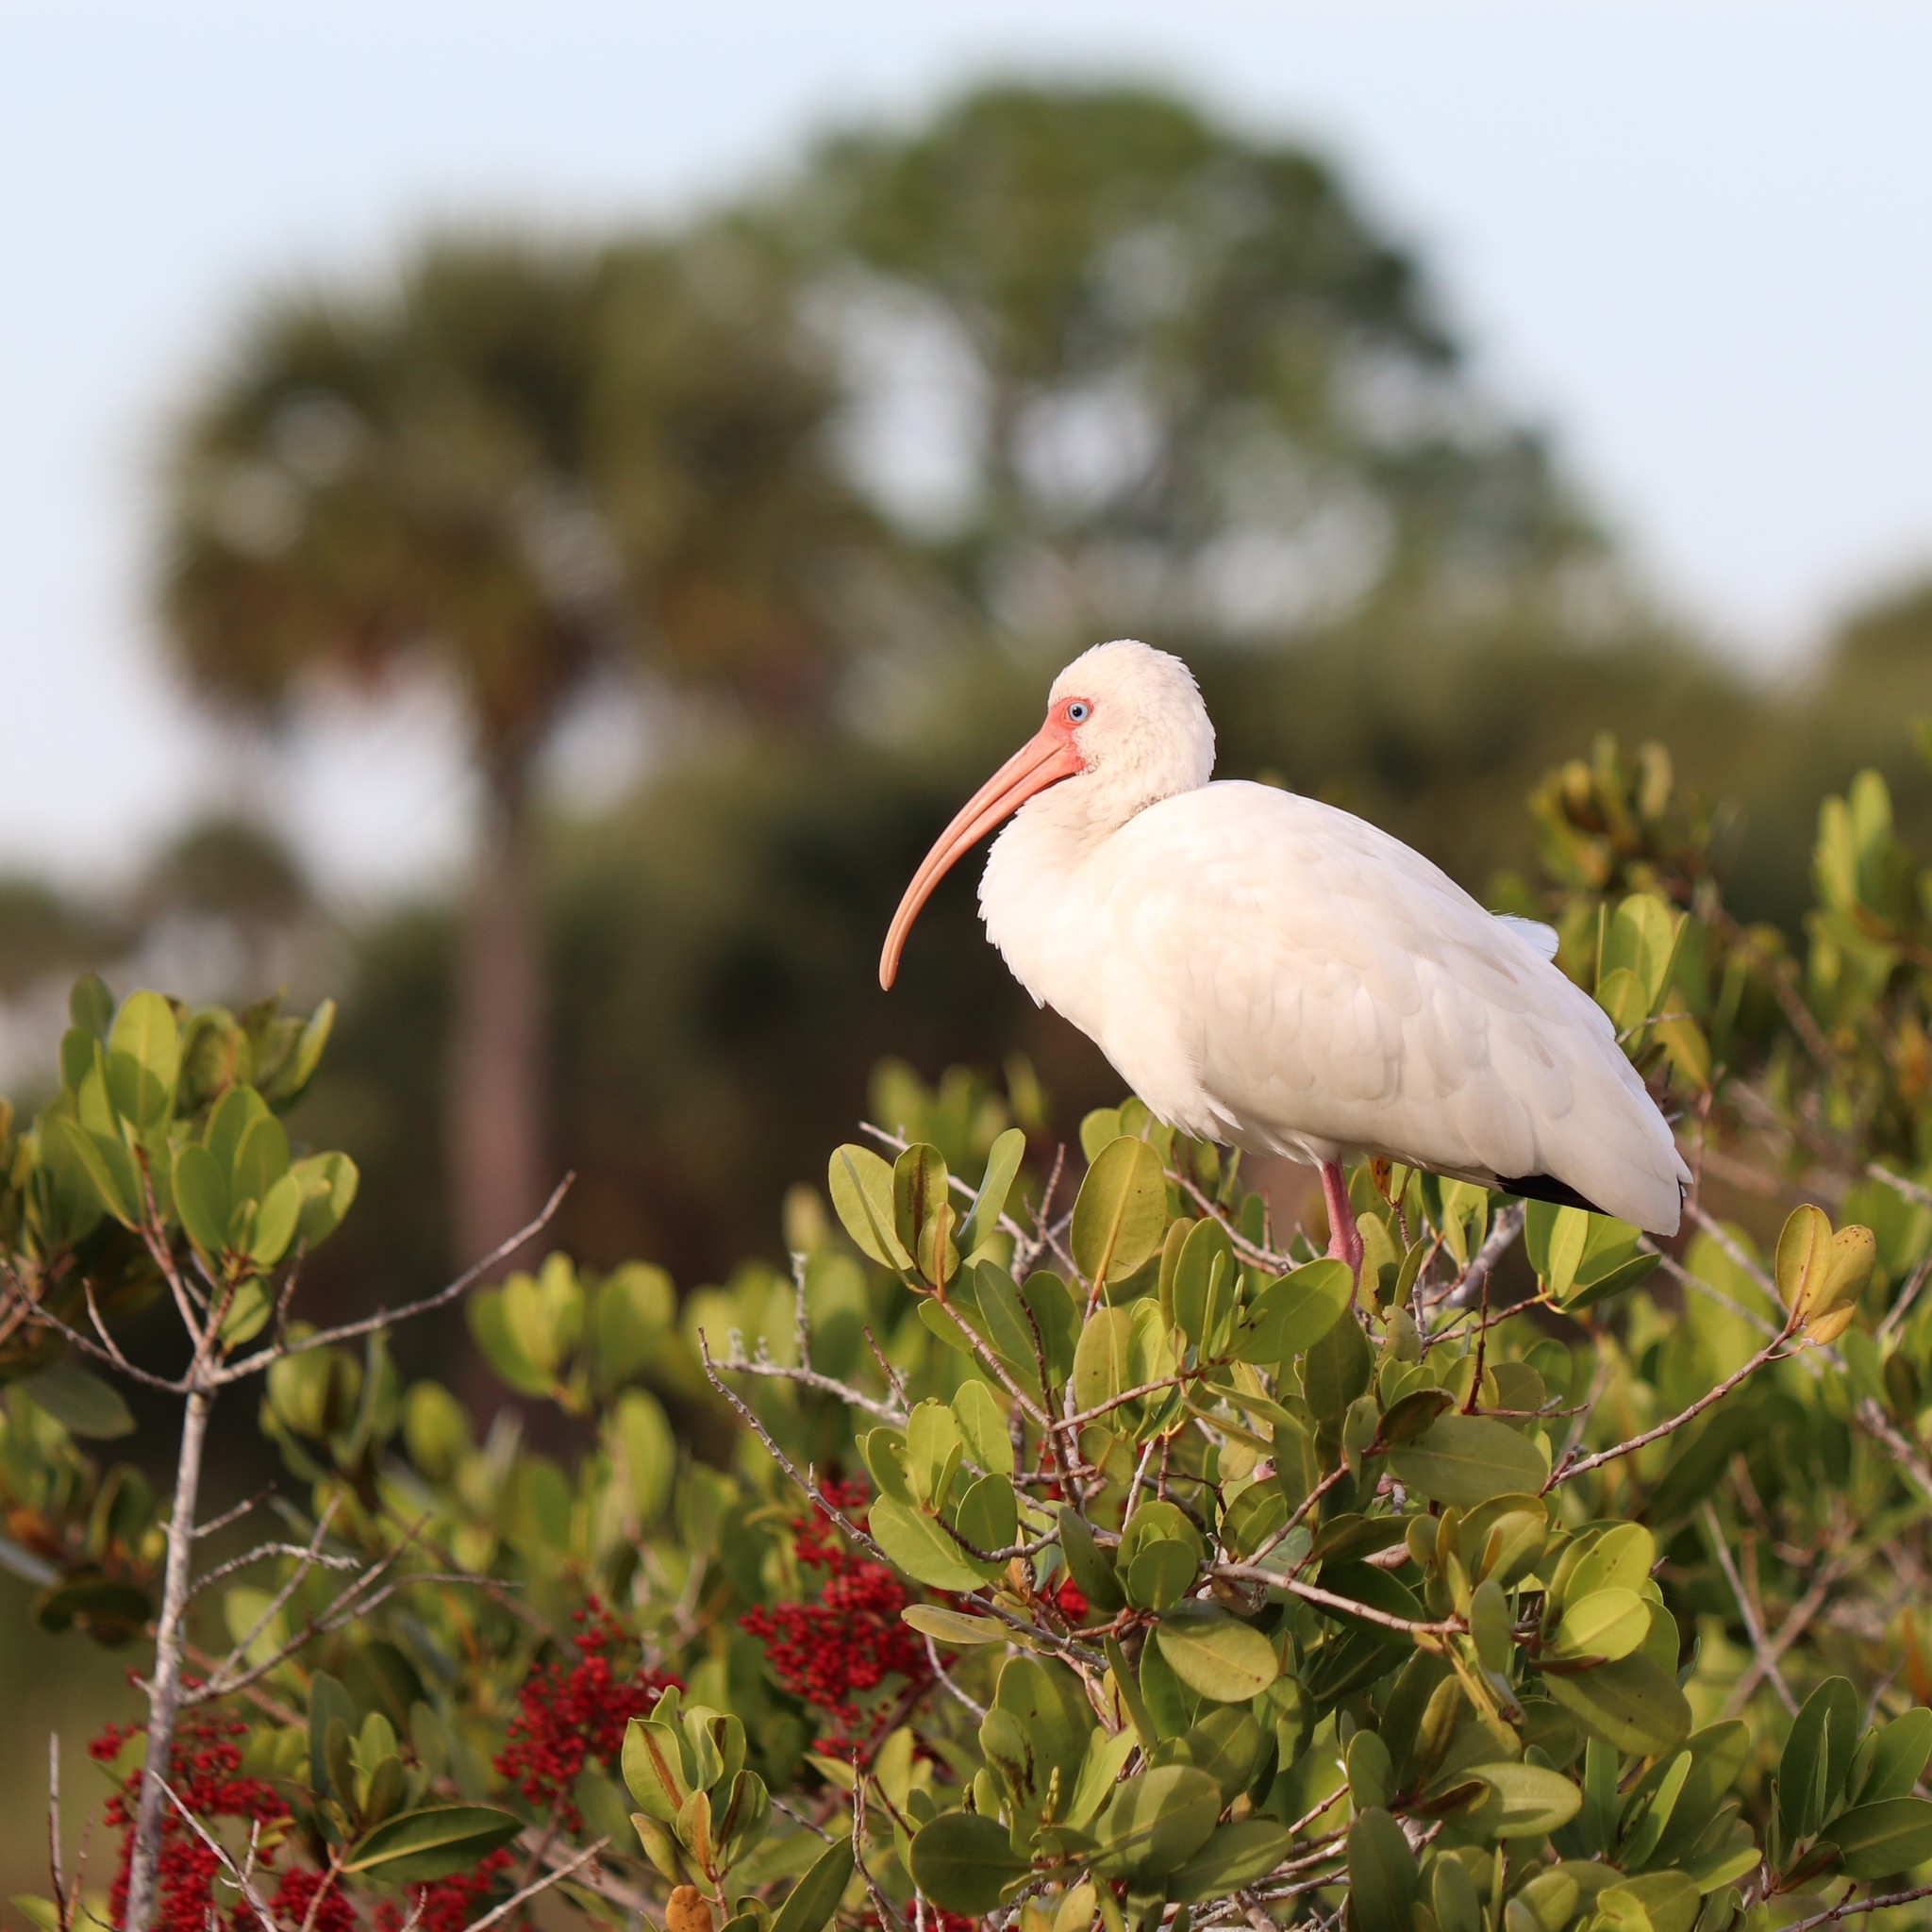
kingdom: Animalia
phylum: Chordata
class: Aves
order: Pelecaniformes
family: Threskiornithidae
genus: Eudocimus
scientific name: Eudocimus albus
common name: White ibis
